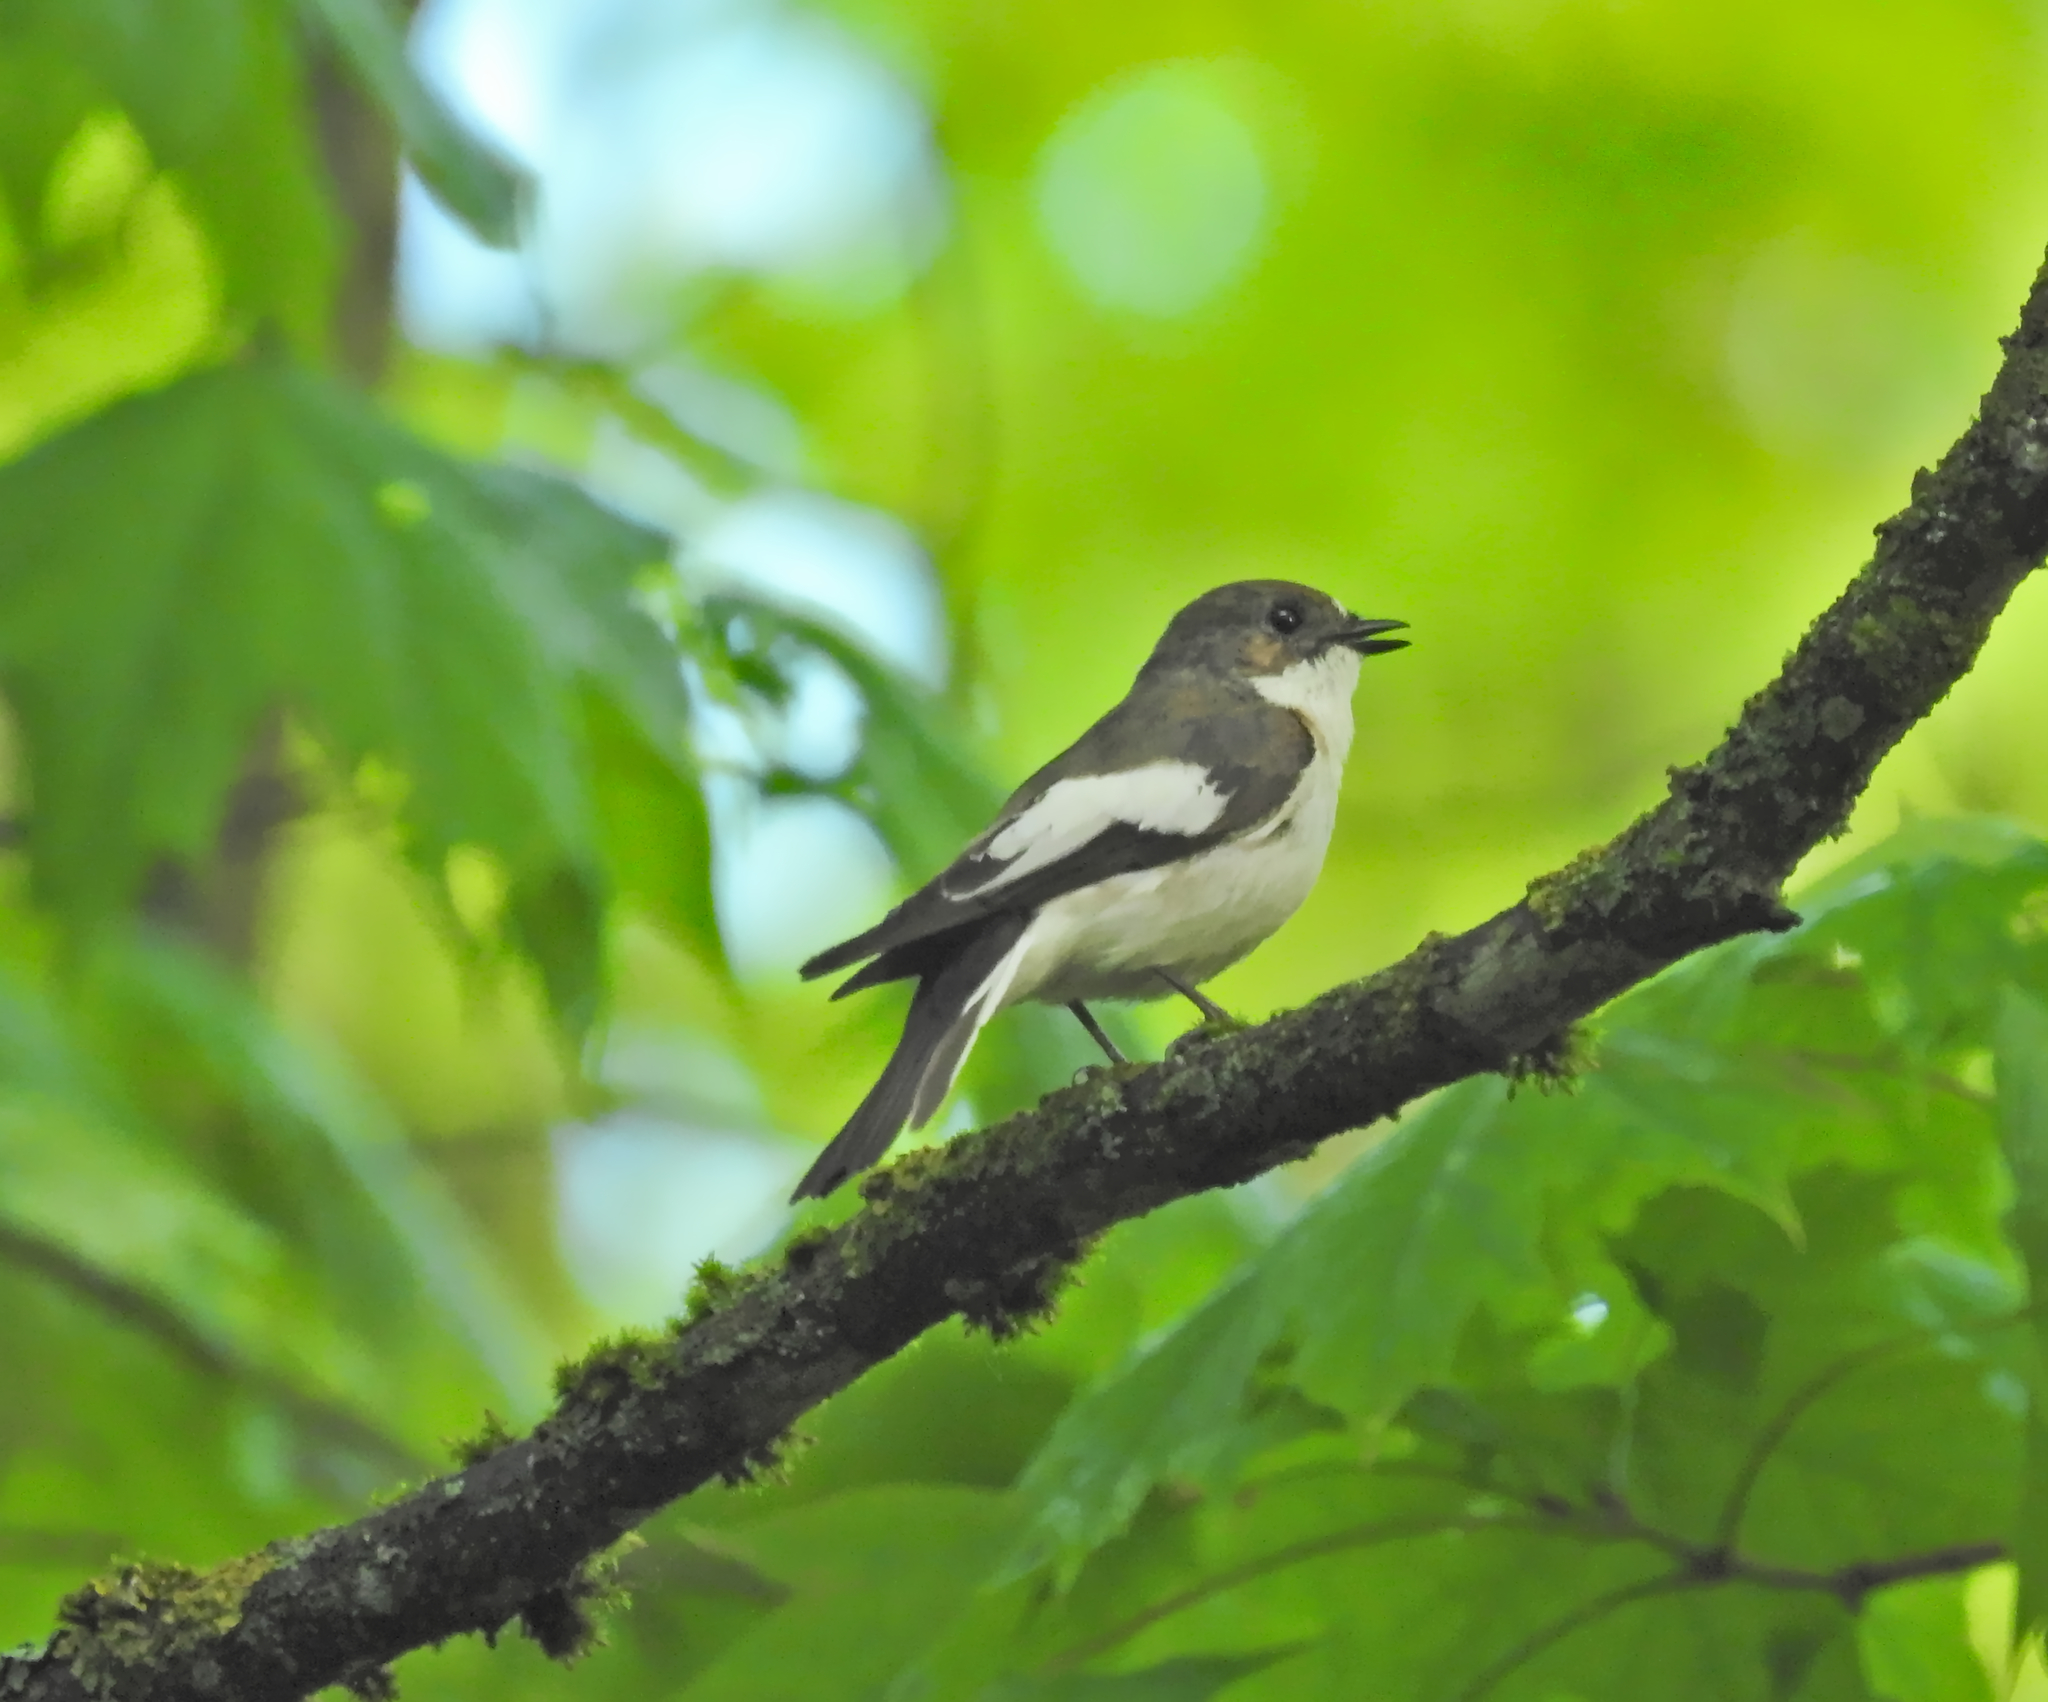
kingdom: Animalia
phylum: Chordata
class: Aves
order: Passeriformes
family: Muscicapidae
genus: Ficedula
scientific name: Ficedula hypoleuca
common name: European pied flycatcher
